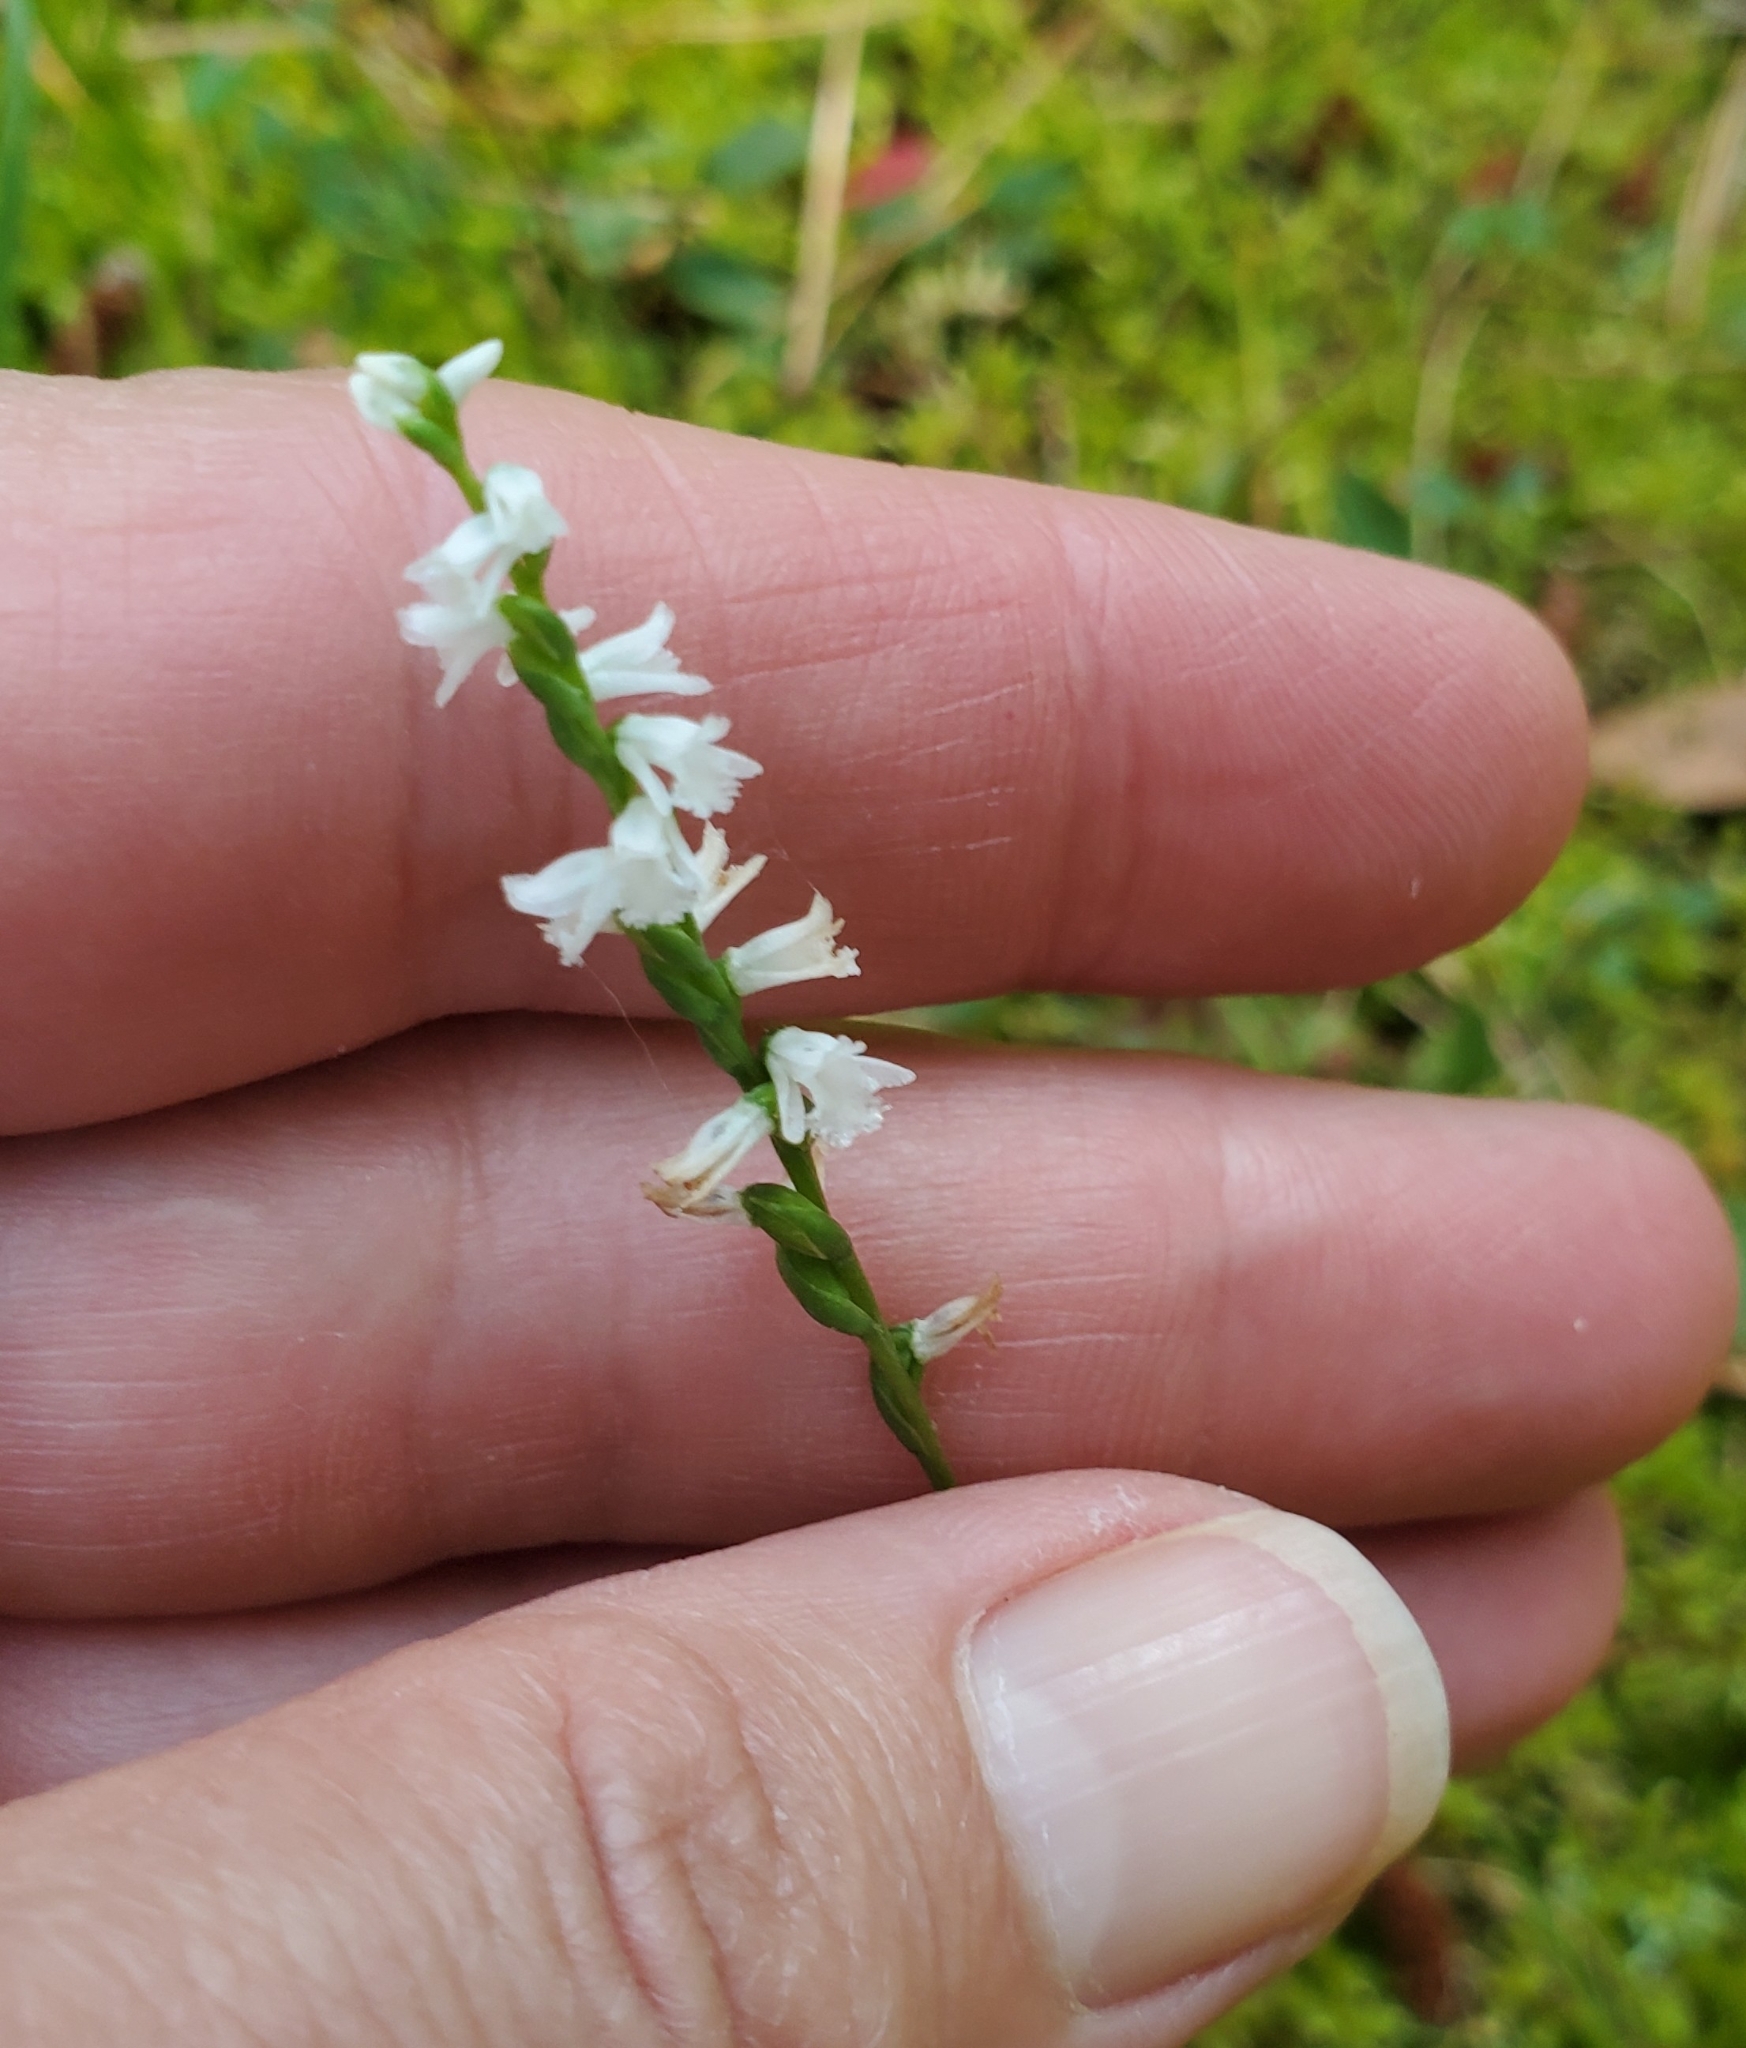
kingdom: Plantae
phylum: Tracheophyta
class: Liliopsida
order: Asparagales
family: Orchidaceae
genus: Spiranthes
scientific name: Spiranthes tuberosa
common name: Little ladies'-tresses
